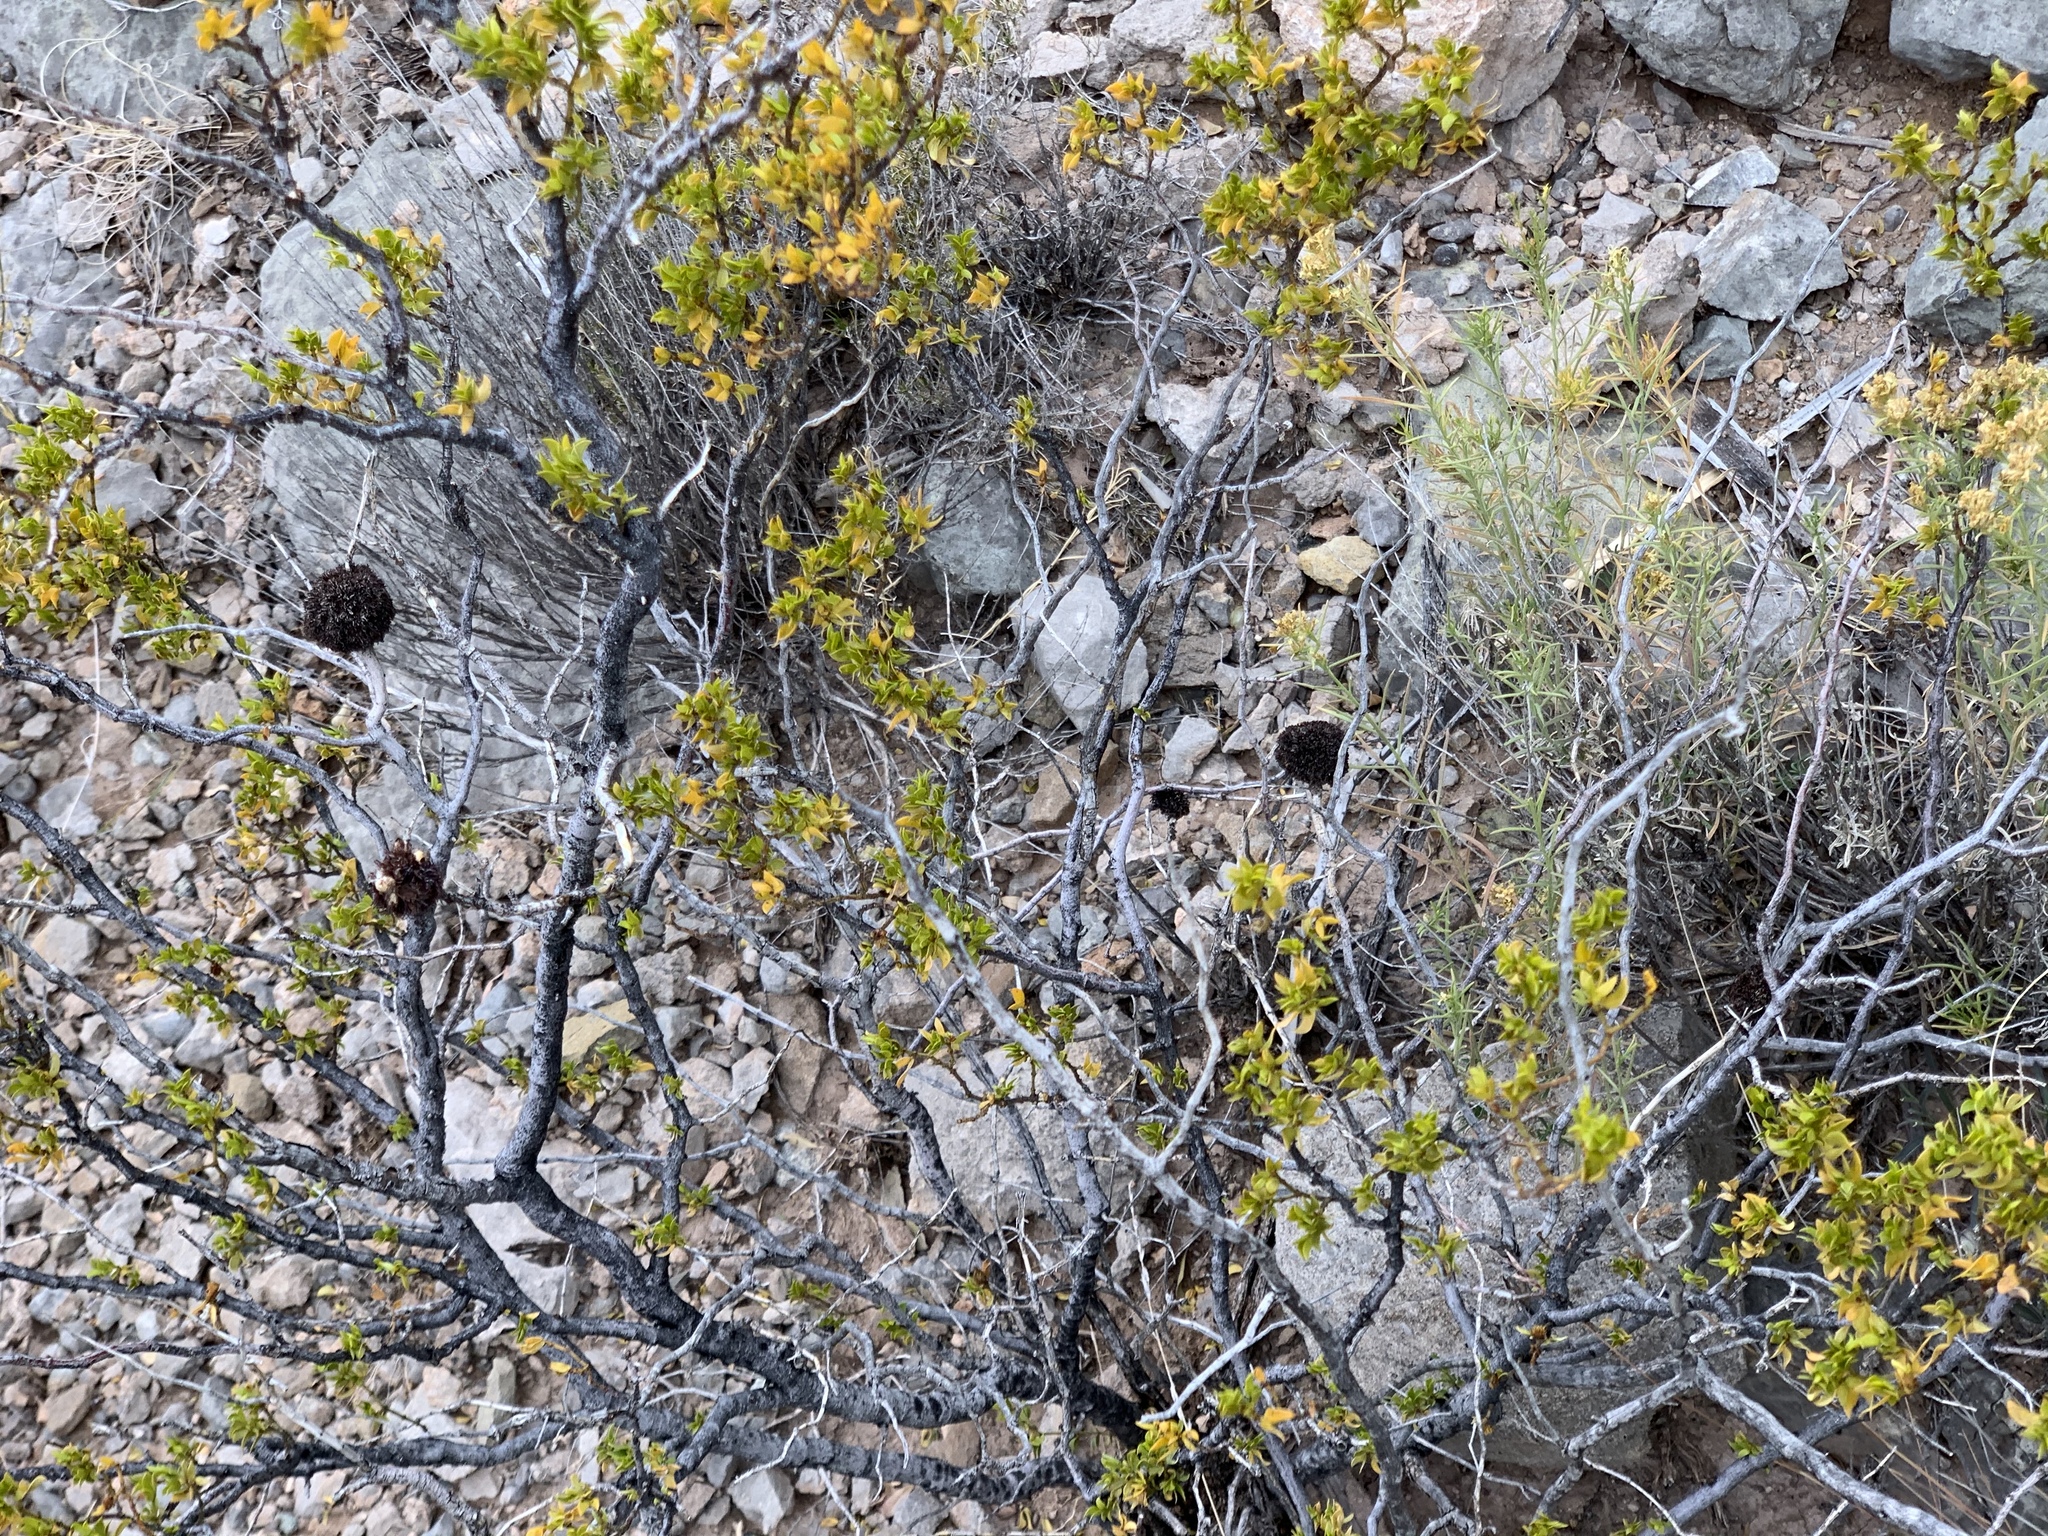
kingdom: Animalia
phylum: Arthropoda
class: Insecta
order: Diptera
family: Cecidomyiidae
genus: Asphondylia
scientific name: Asphondylia auripila
